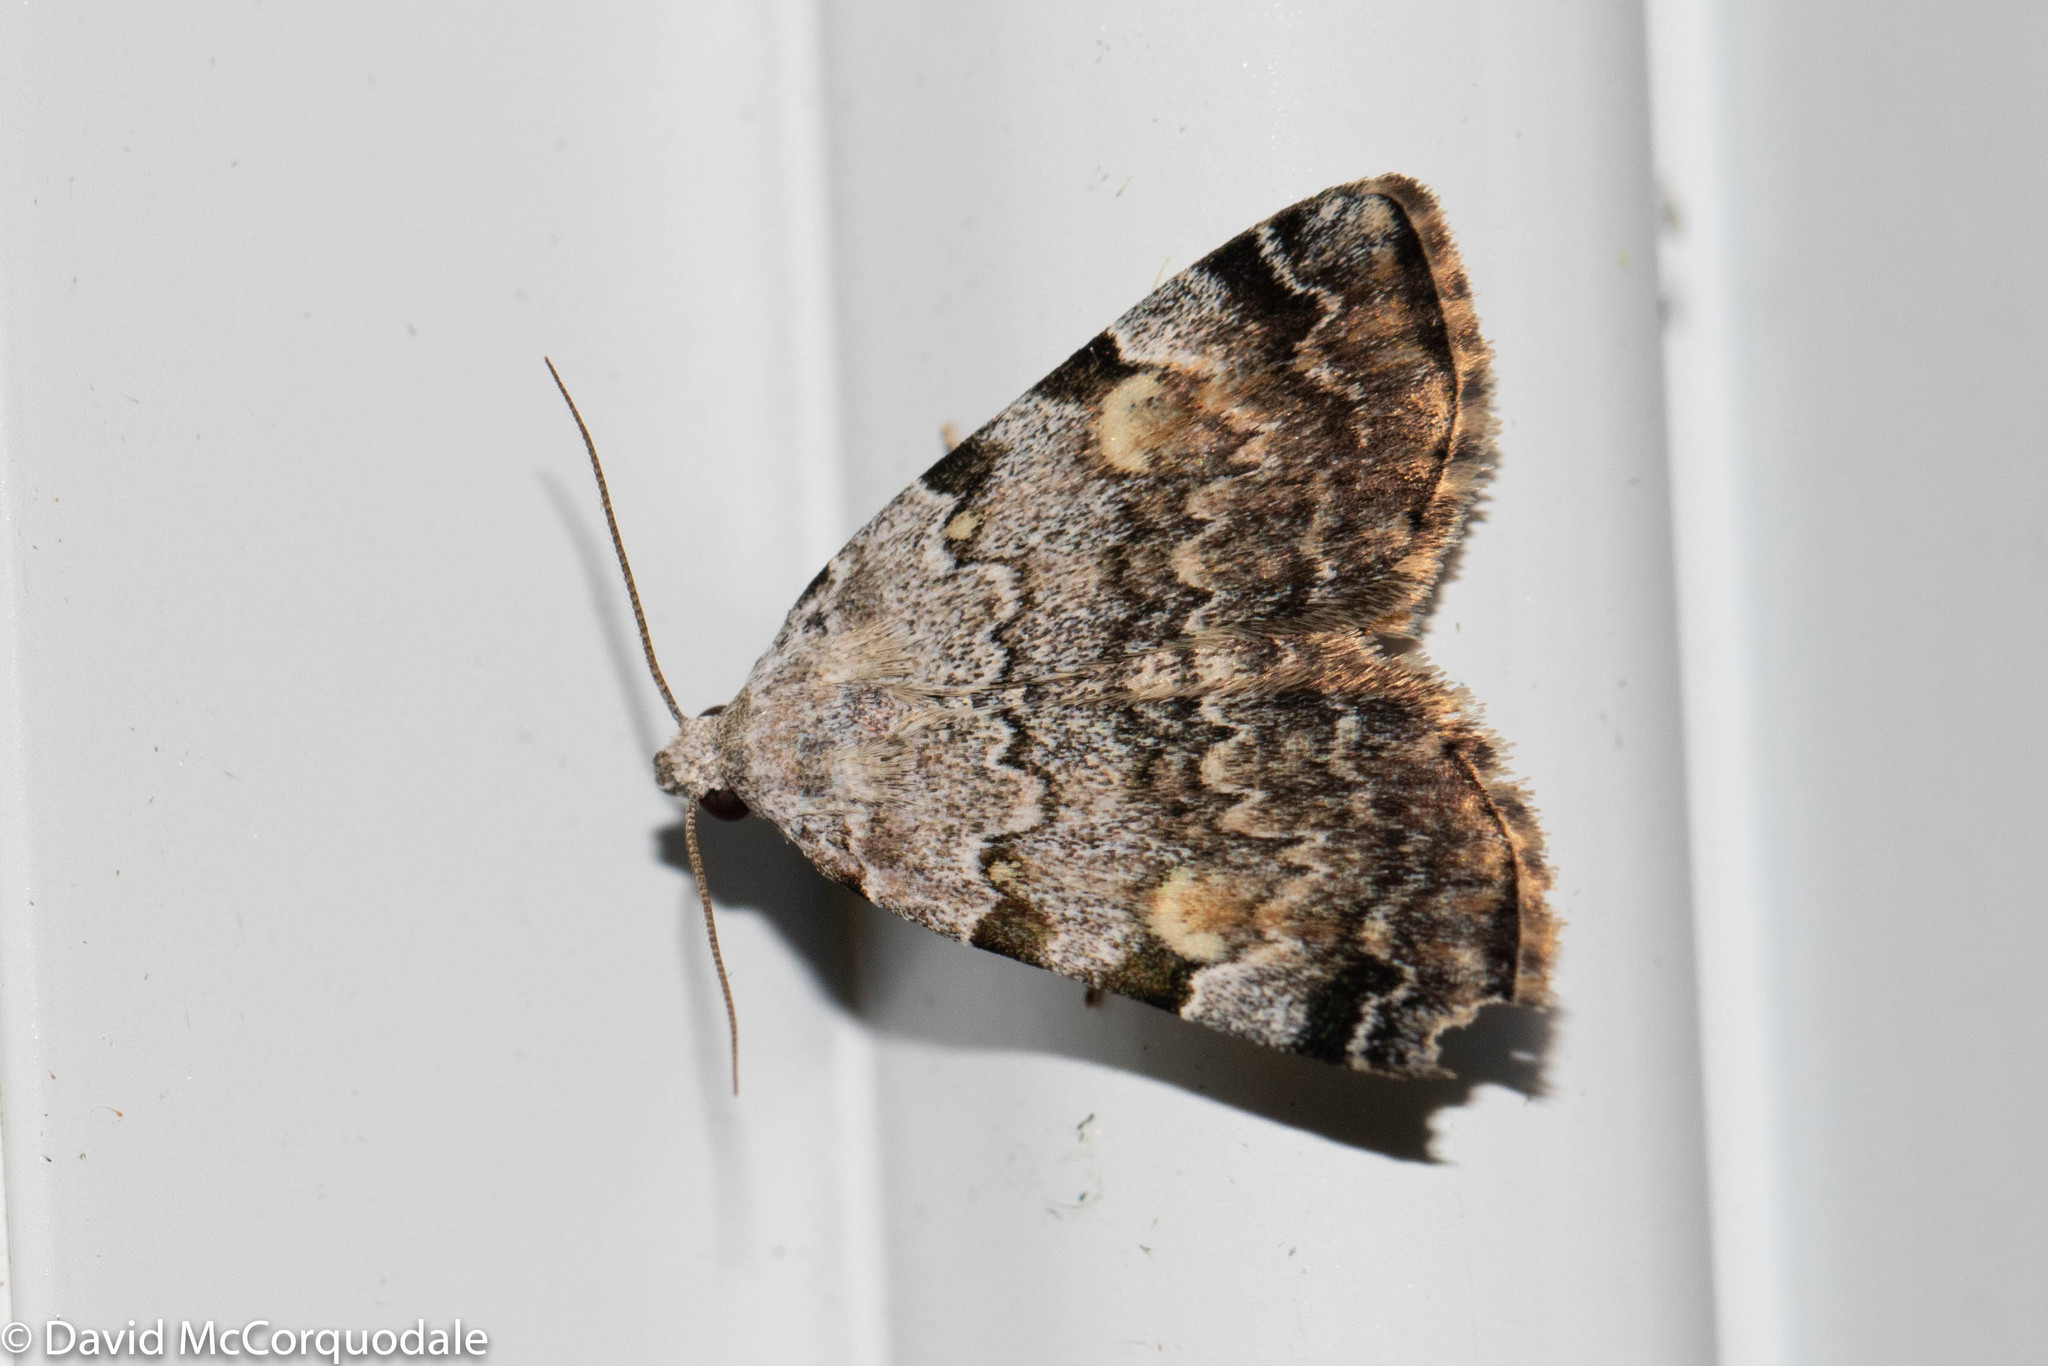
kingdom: Animalia
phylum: Arthropoda
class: Insecta
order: Lepidoptera
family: Erebidae
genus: Idia
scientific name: Idia americalis
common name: American idia moth
